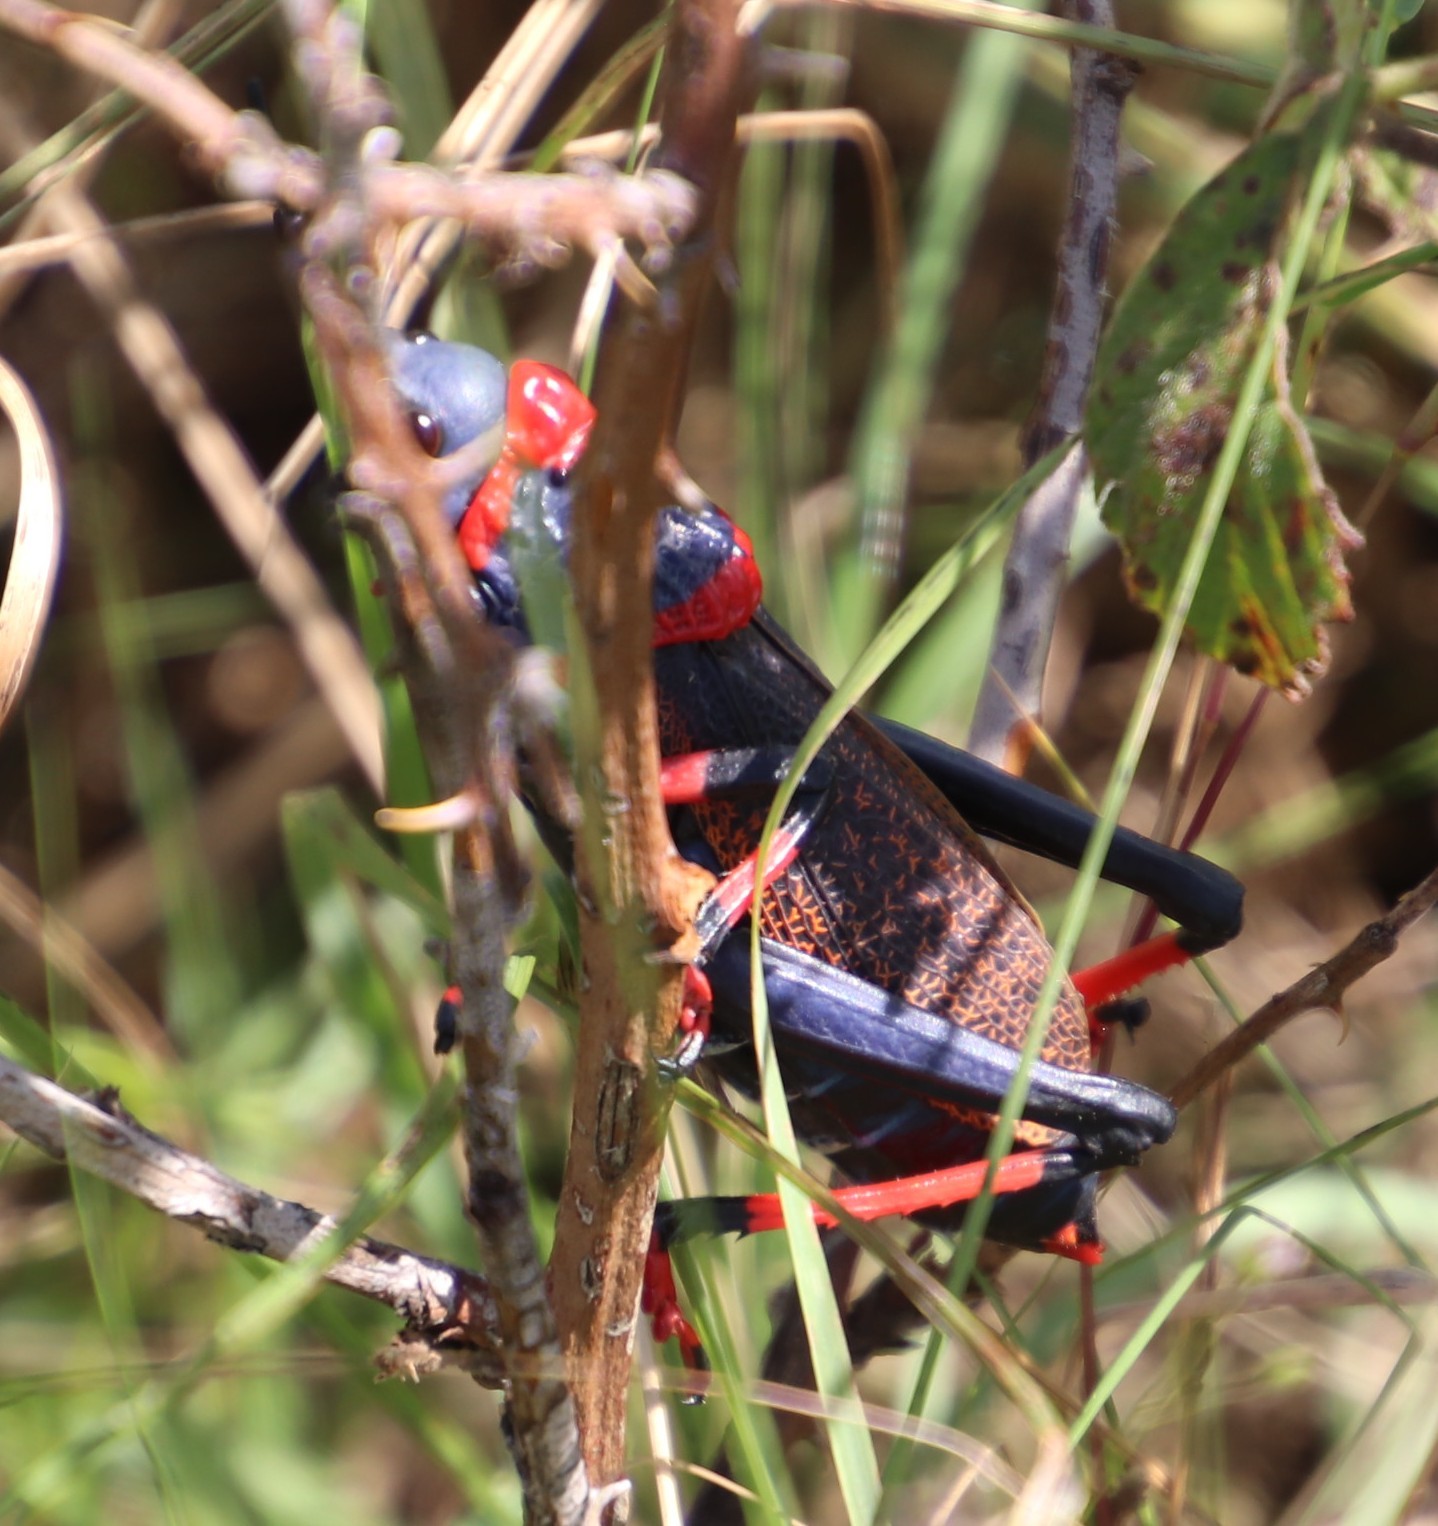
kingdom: Animalia
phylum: Arthropoda
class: Insecta
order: Orthoptera
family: Pyrgomorphidae
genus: Dictyophorus
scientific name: Dictyophorus spumans
